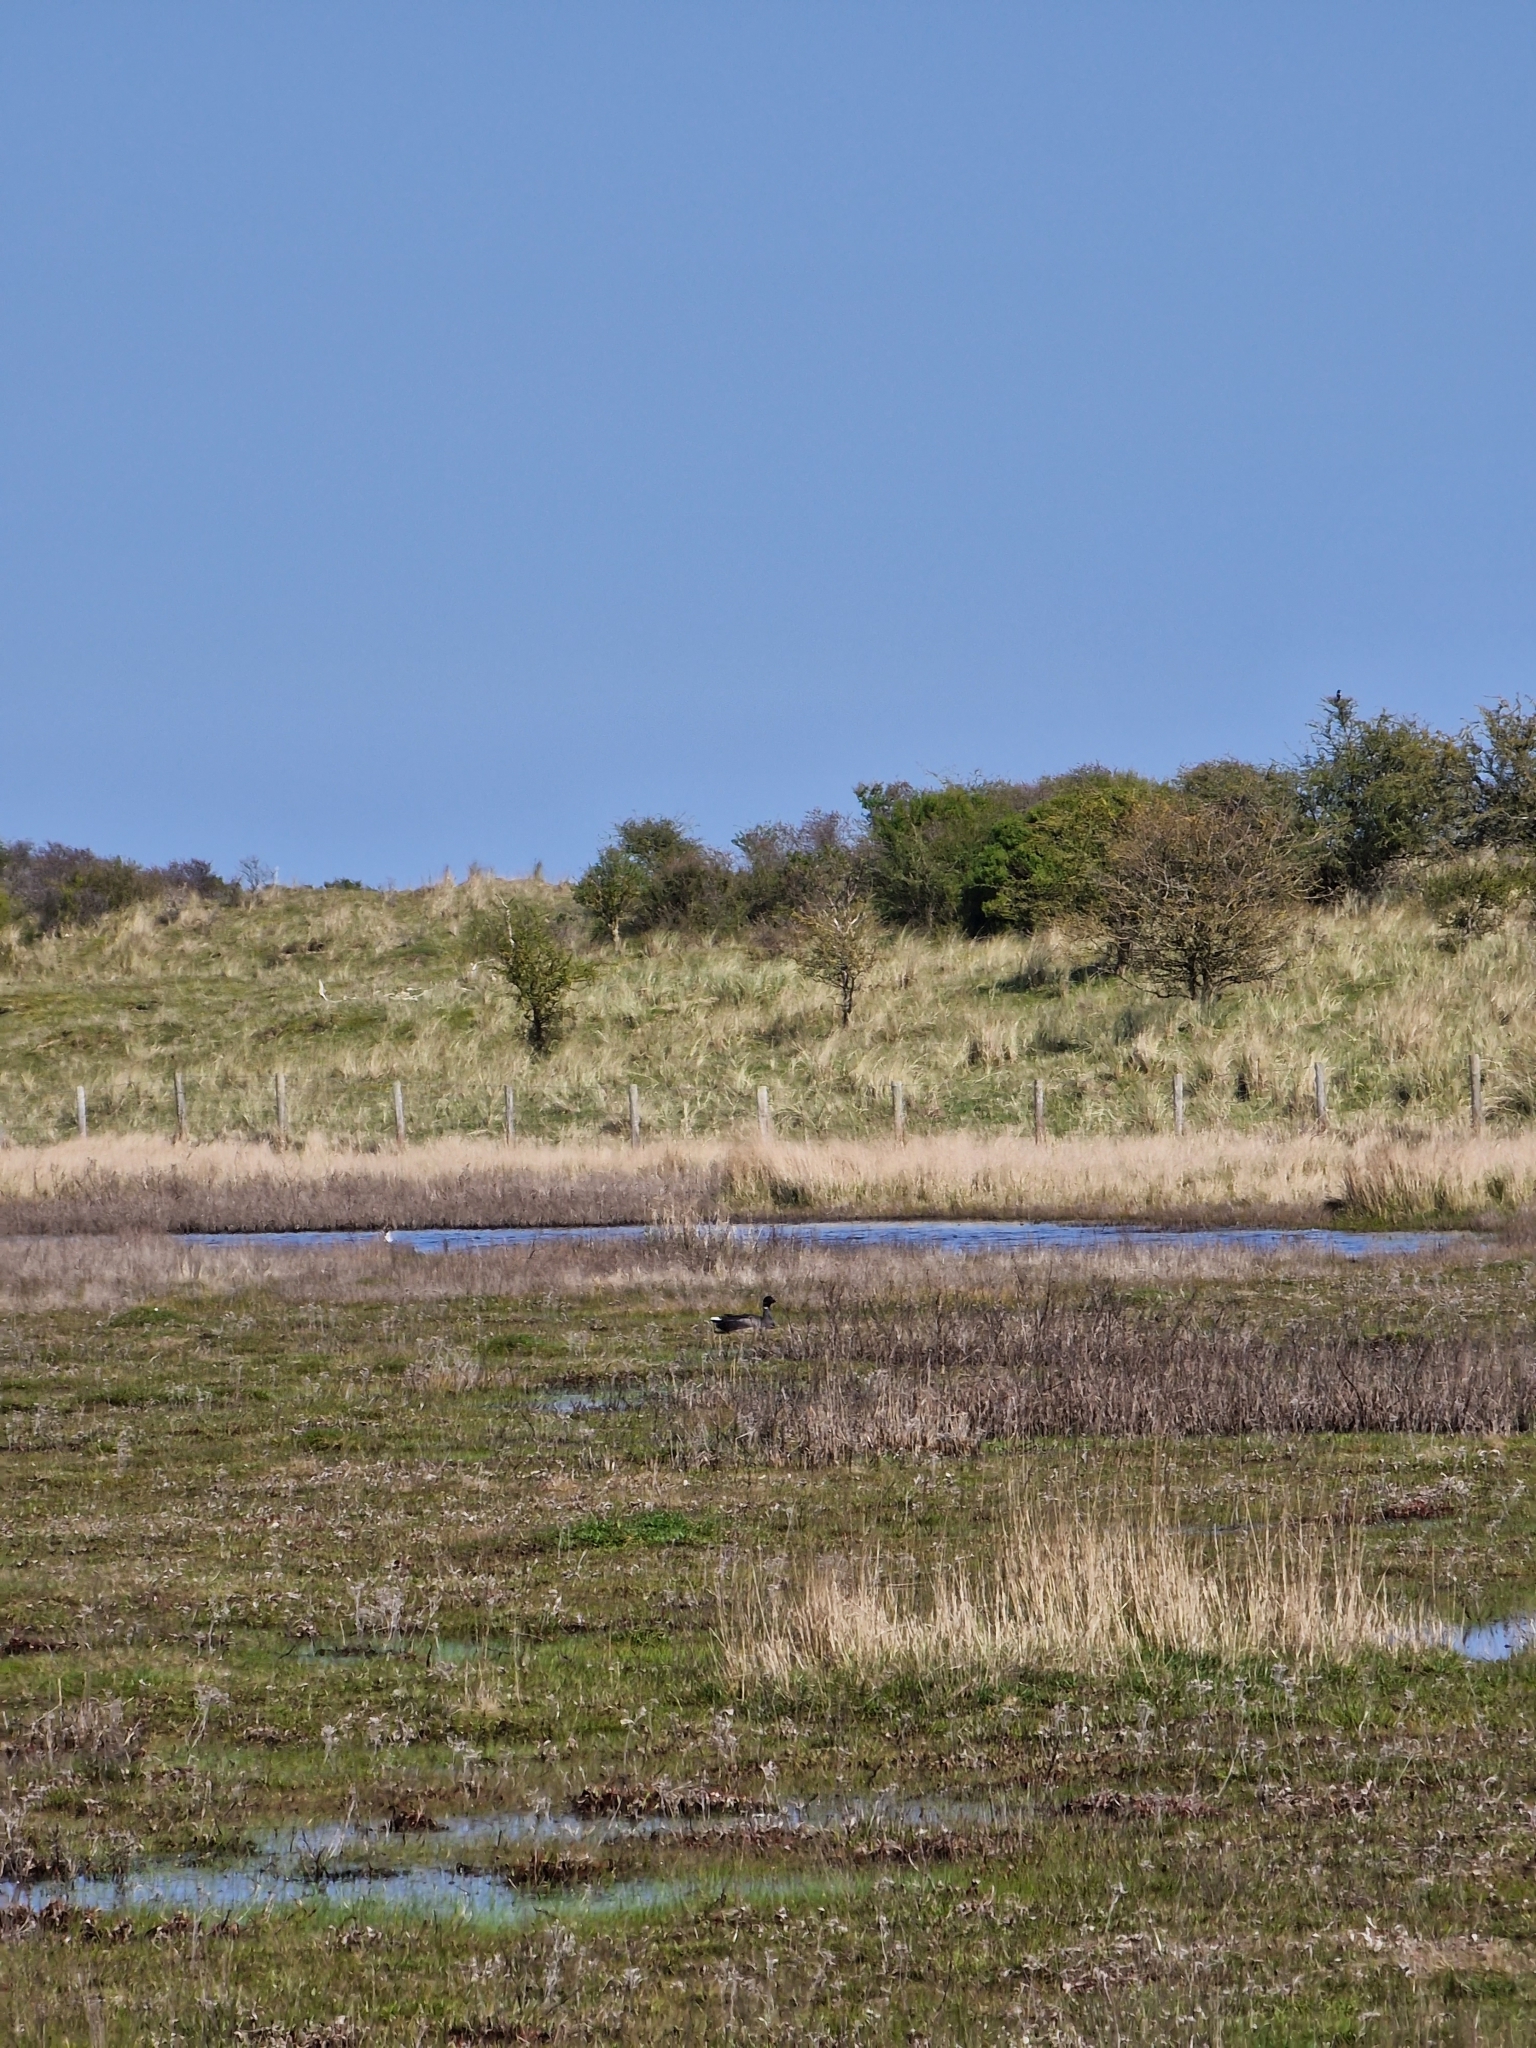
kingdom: Animalia
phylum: Chordata
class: Aves
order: Anseriformes
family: Anatidae
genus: Branta
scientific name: Branta bernicla
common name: Brant goose
